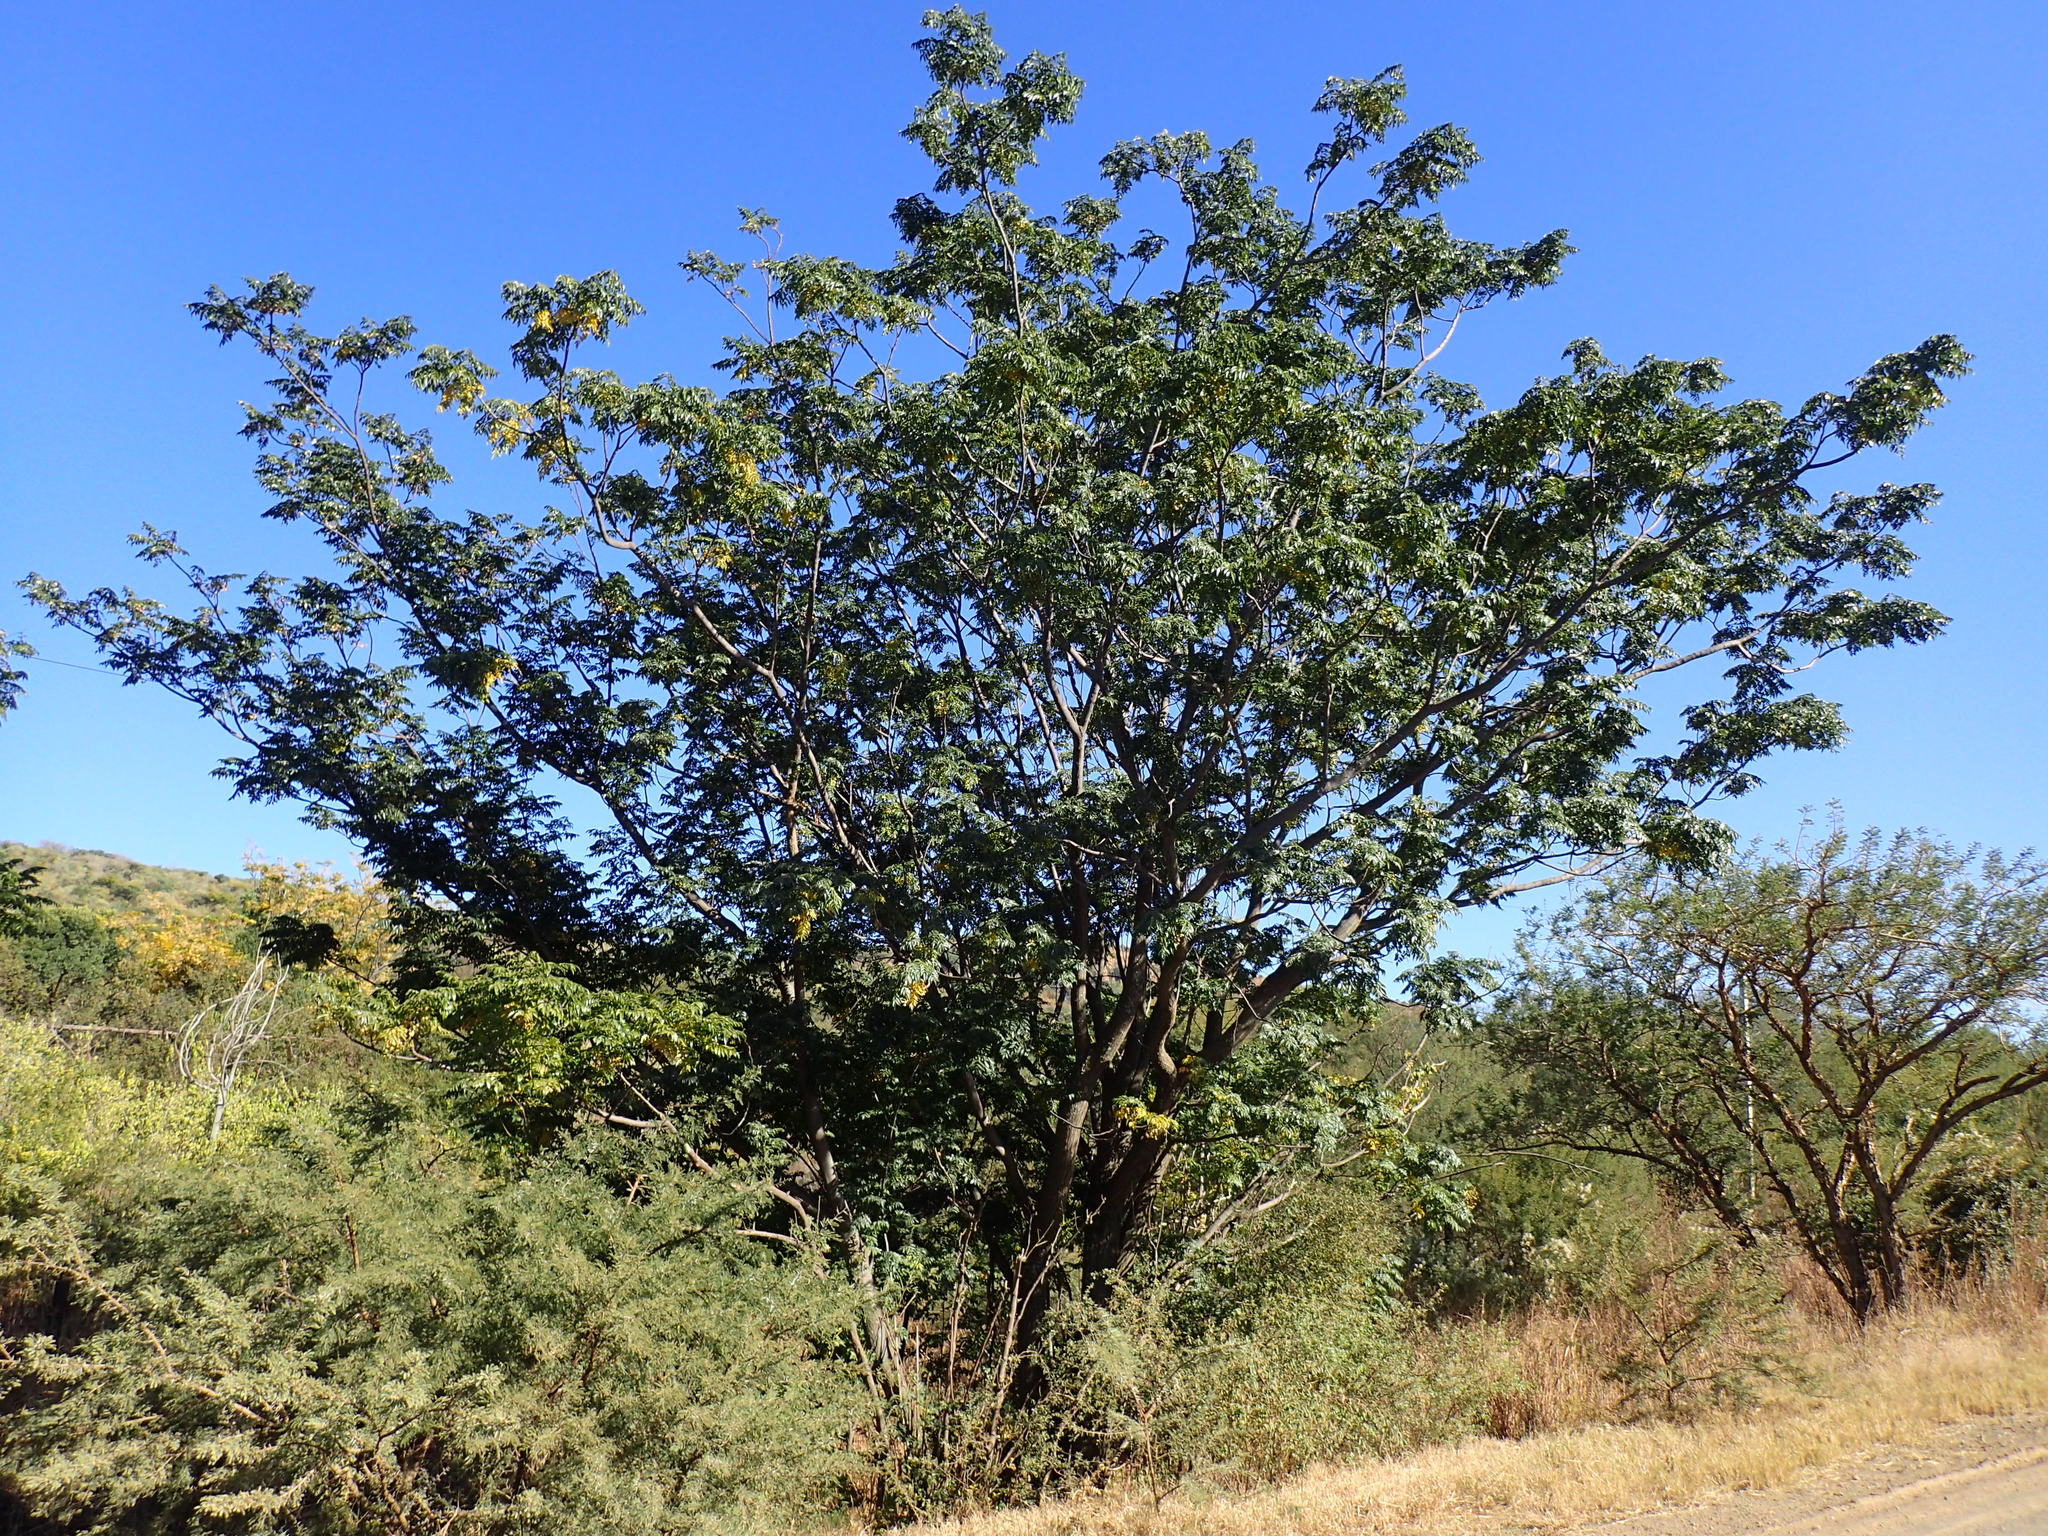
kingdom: Plantae
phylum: Tracheophyta
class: Magnoliopsida
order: Sapindales
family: Meliaceae
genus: Melia
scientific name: Melia azedarach
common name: Chinaberrytree
